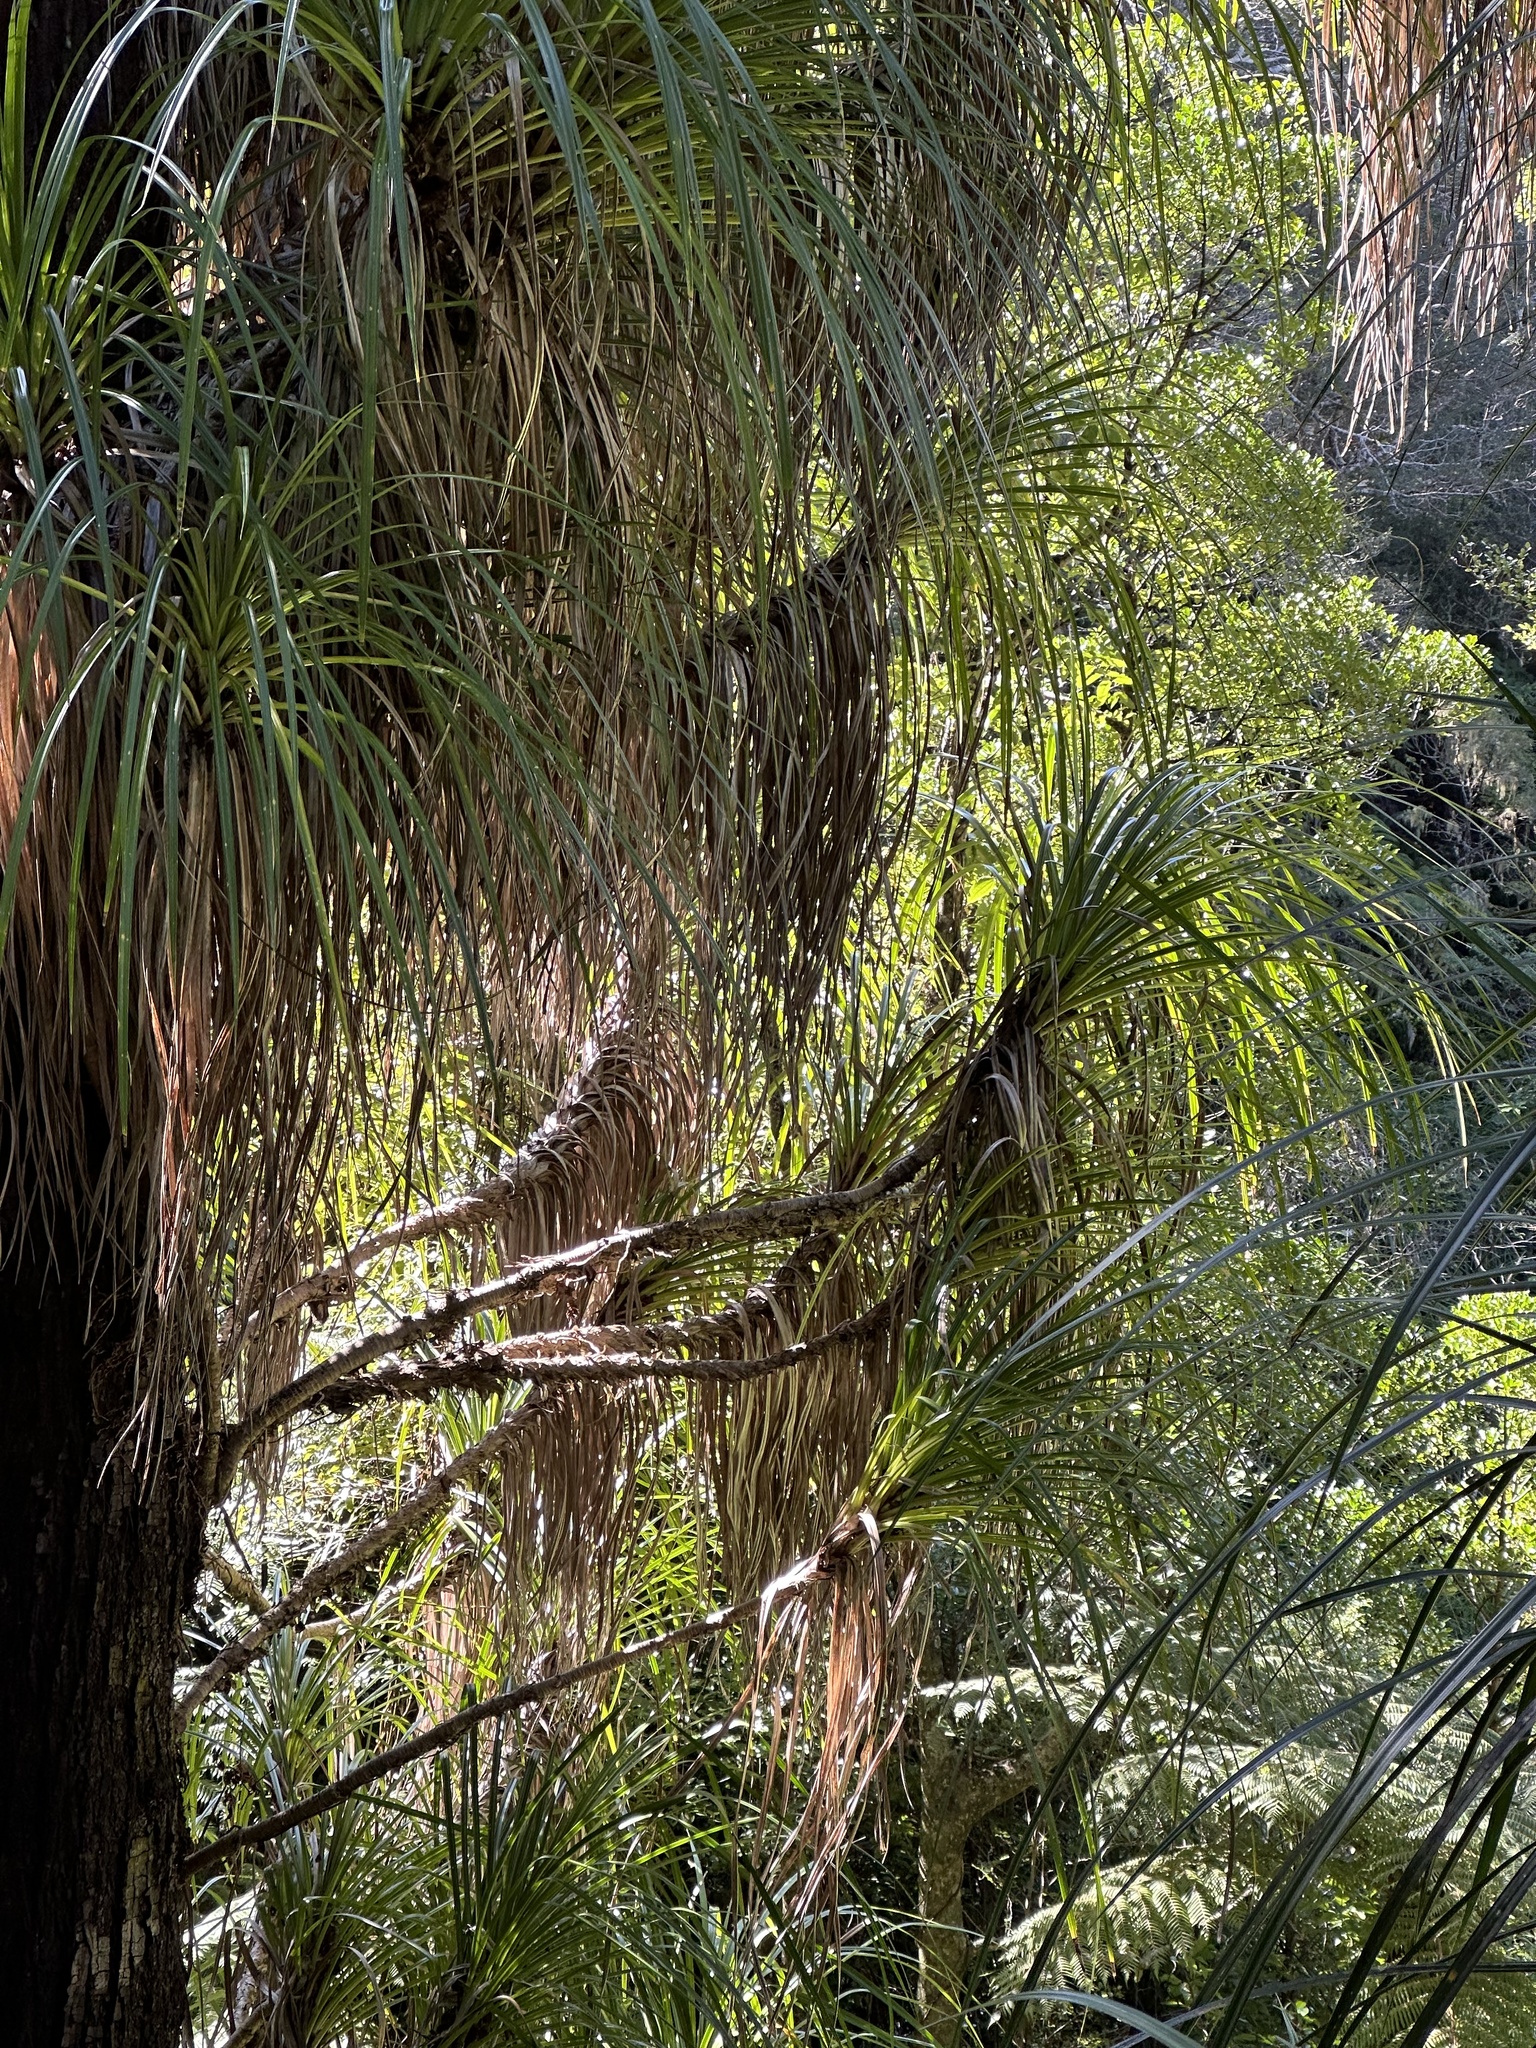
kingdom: Plantae
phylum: Tracheophyta
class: Liliopsida
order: Pandanales
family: Pandanaceae
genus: Freycinetia
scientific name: Freycinetia banksii
